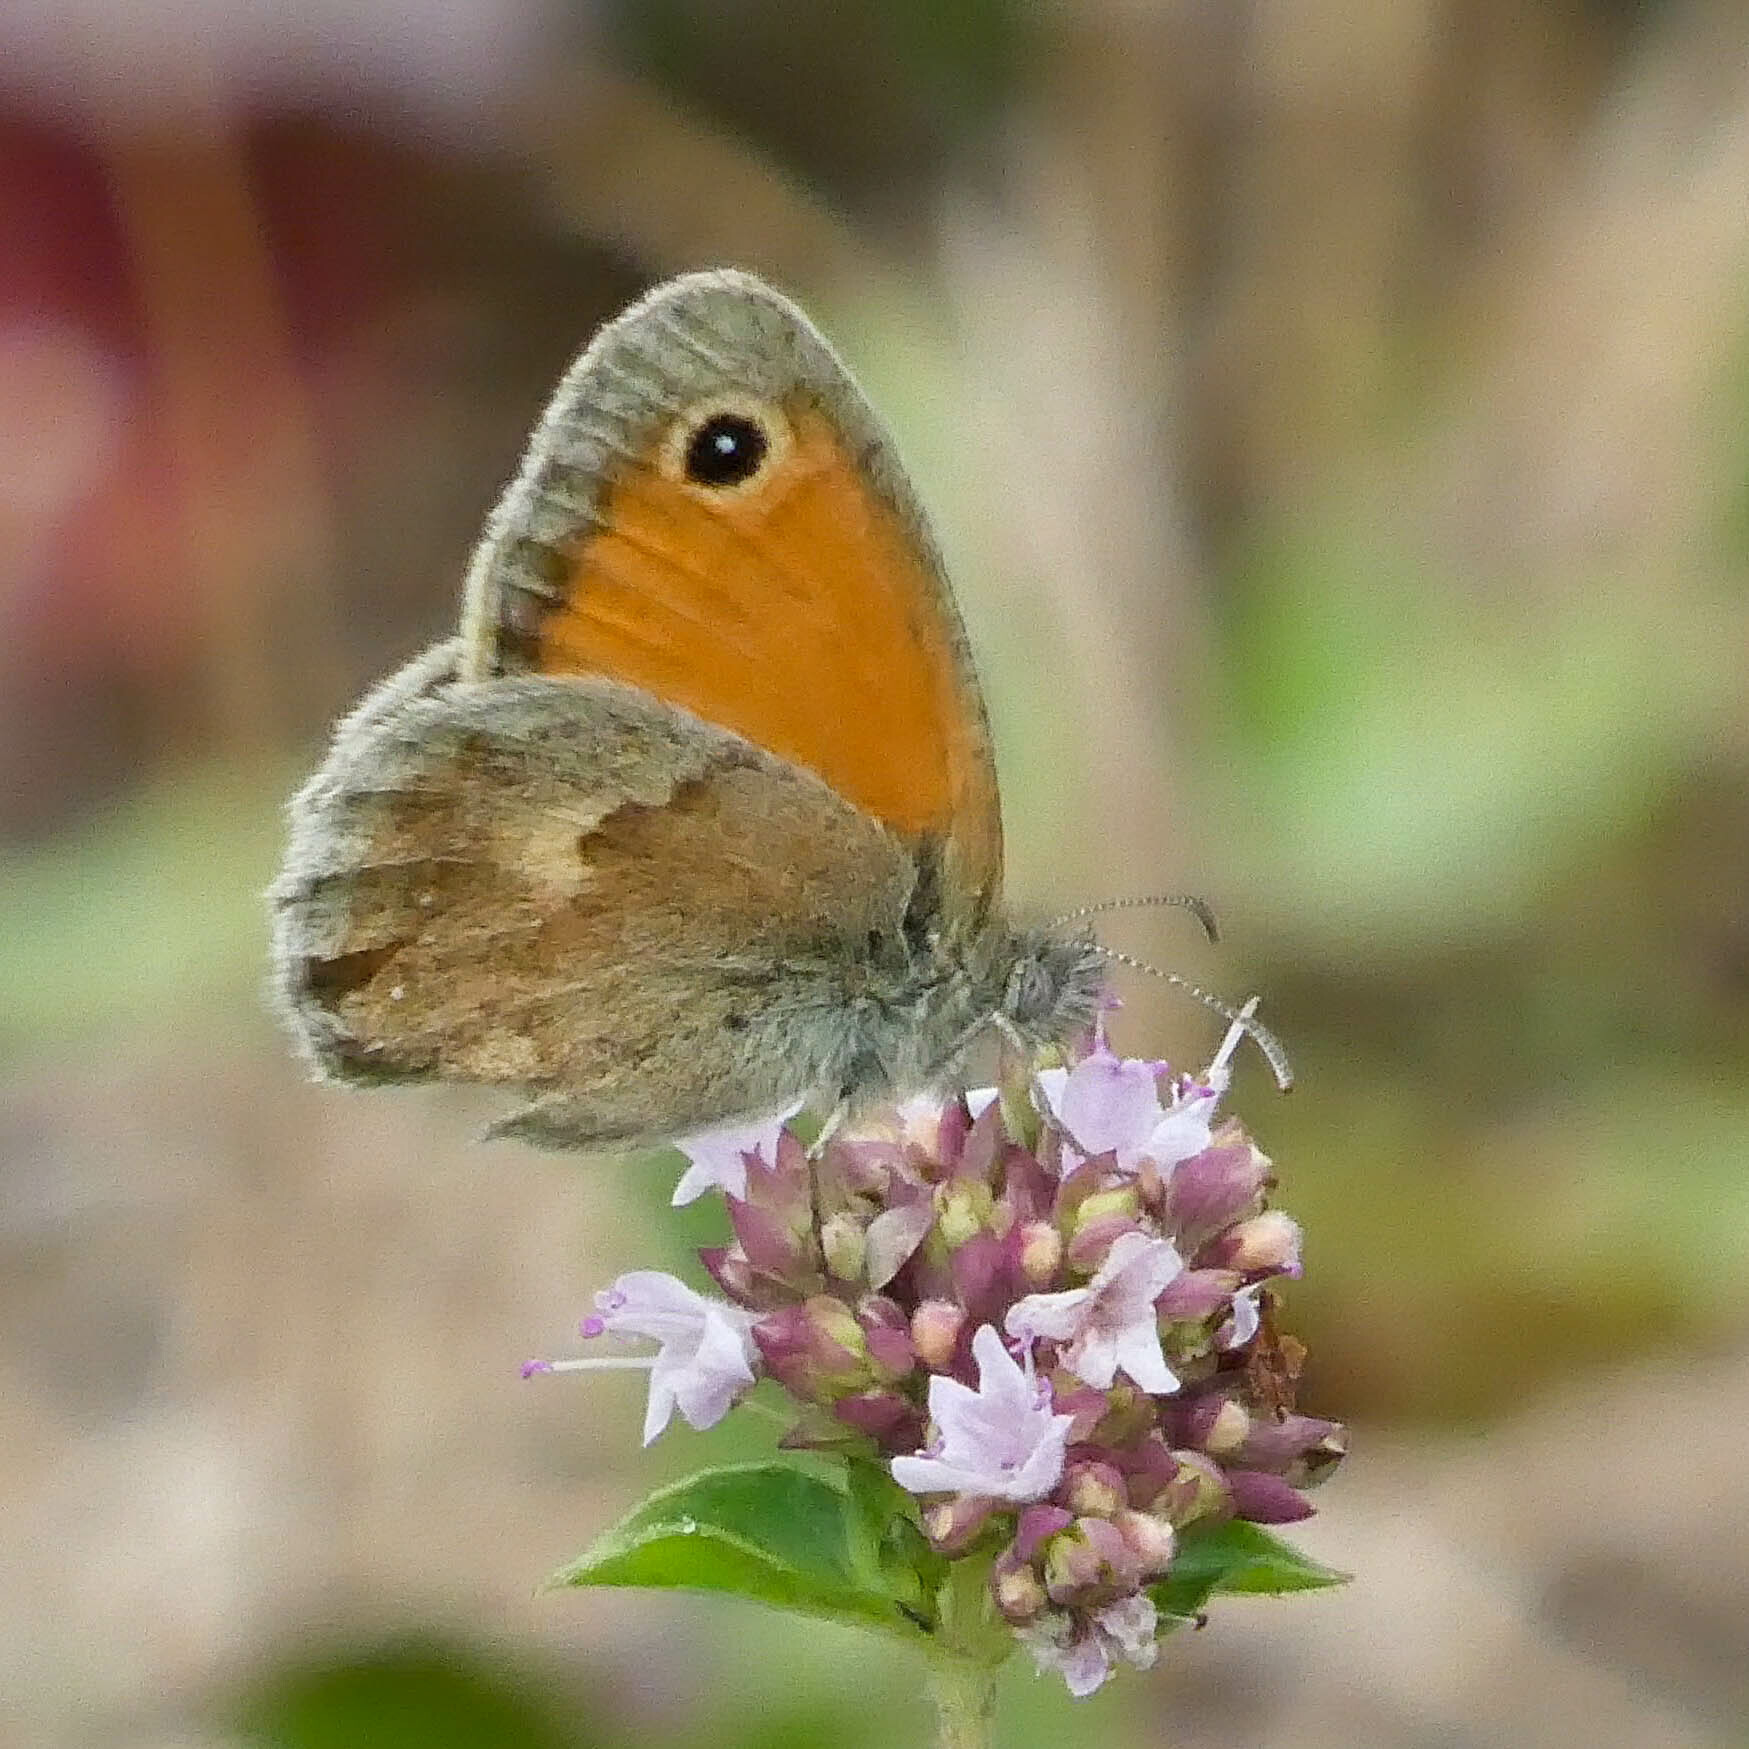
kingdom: Animalia
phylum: Arthropoda
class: Insecta
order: Lepidoptera
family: Nymphalidae
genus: Coenonympha
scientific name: Coenonympha pamphilus
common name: Small heath
